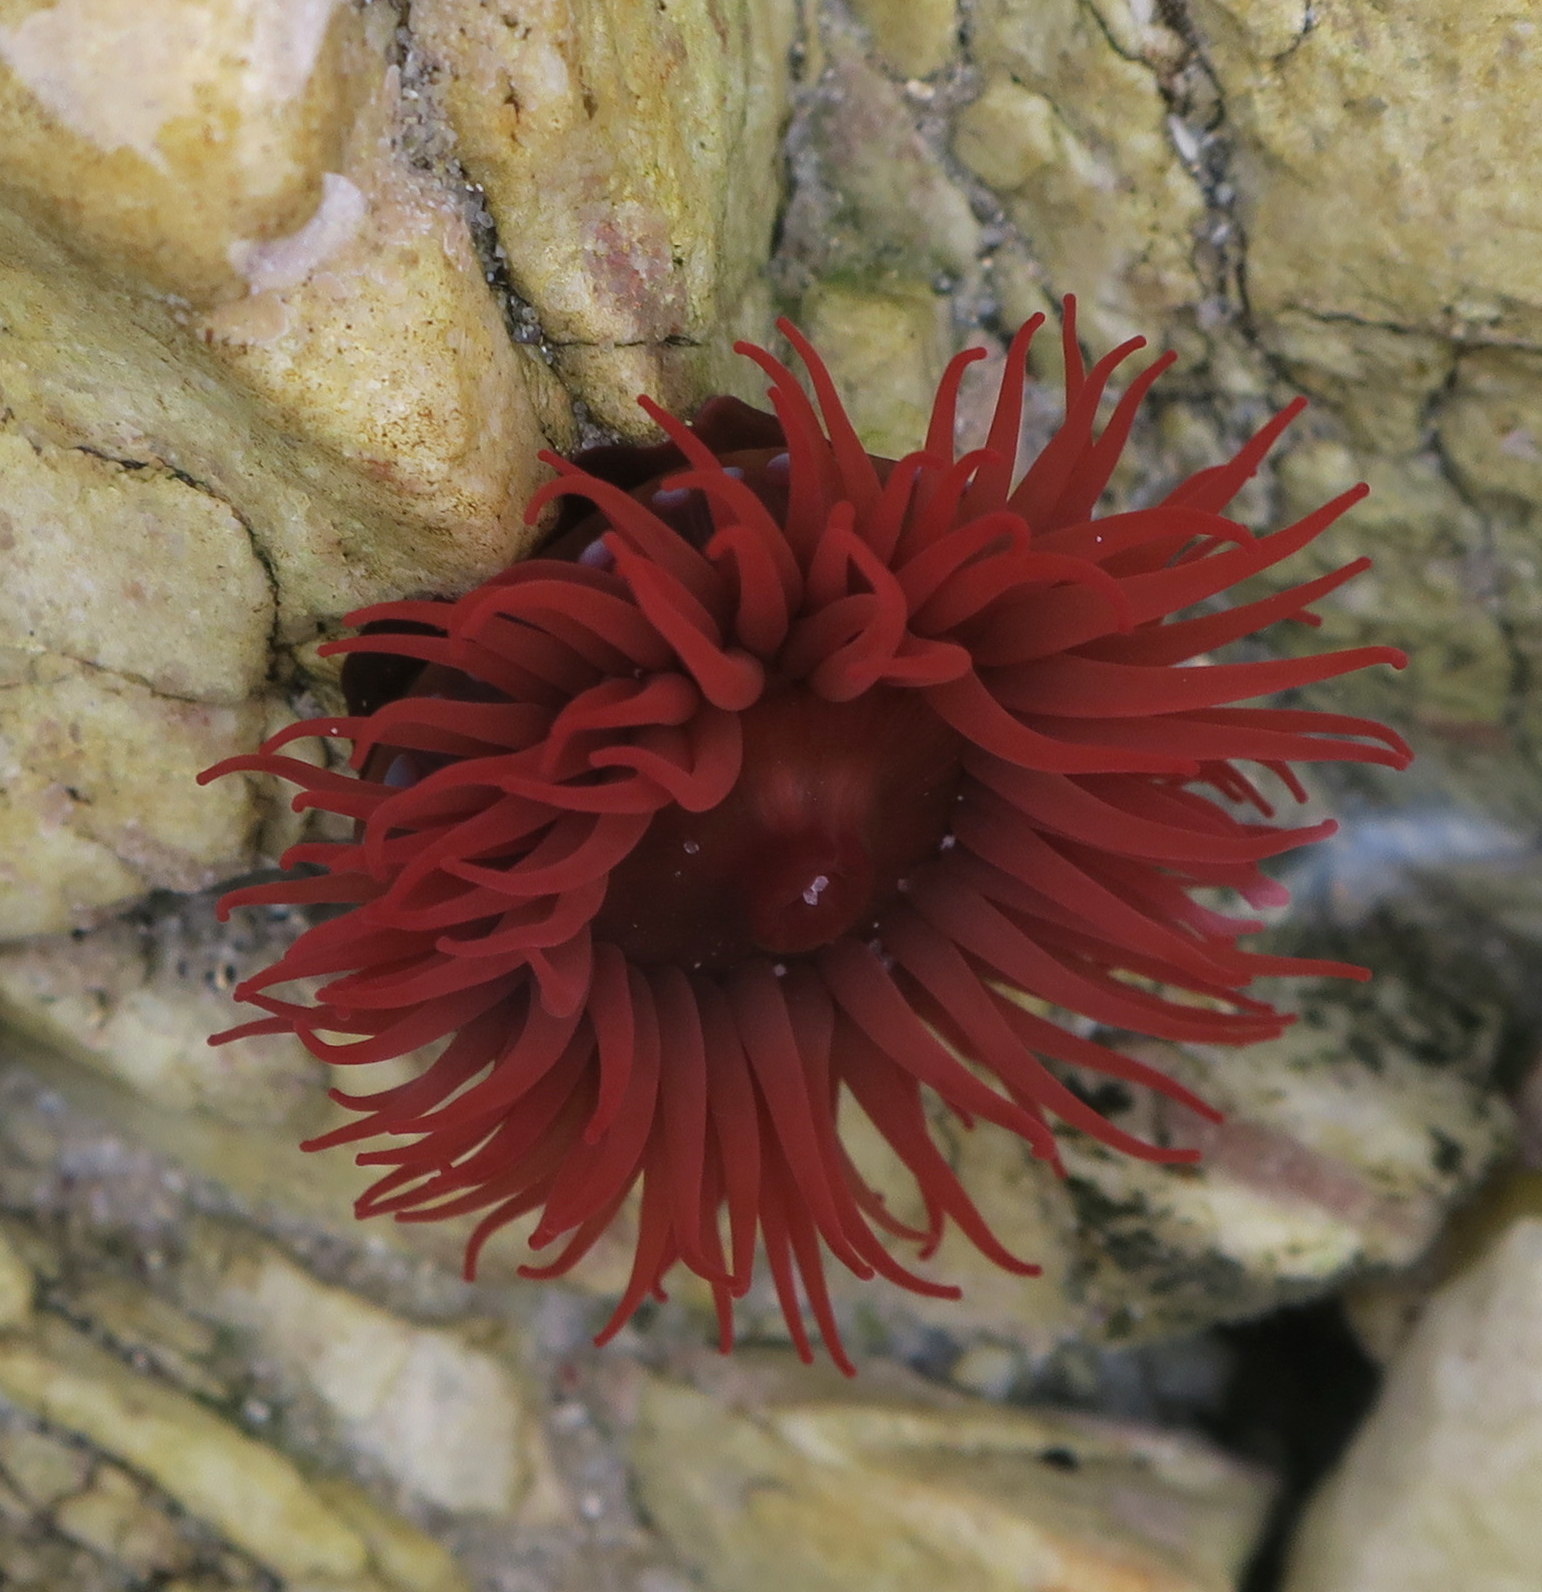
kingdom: Animalia
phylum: Cnidaria
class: Anthozoa
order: Actiniaria
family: Actiniidae
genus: Actinia
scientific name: Actinia tenebrosa
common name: Waratah anemone
